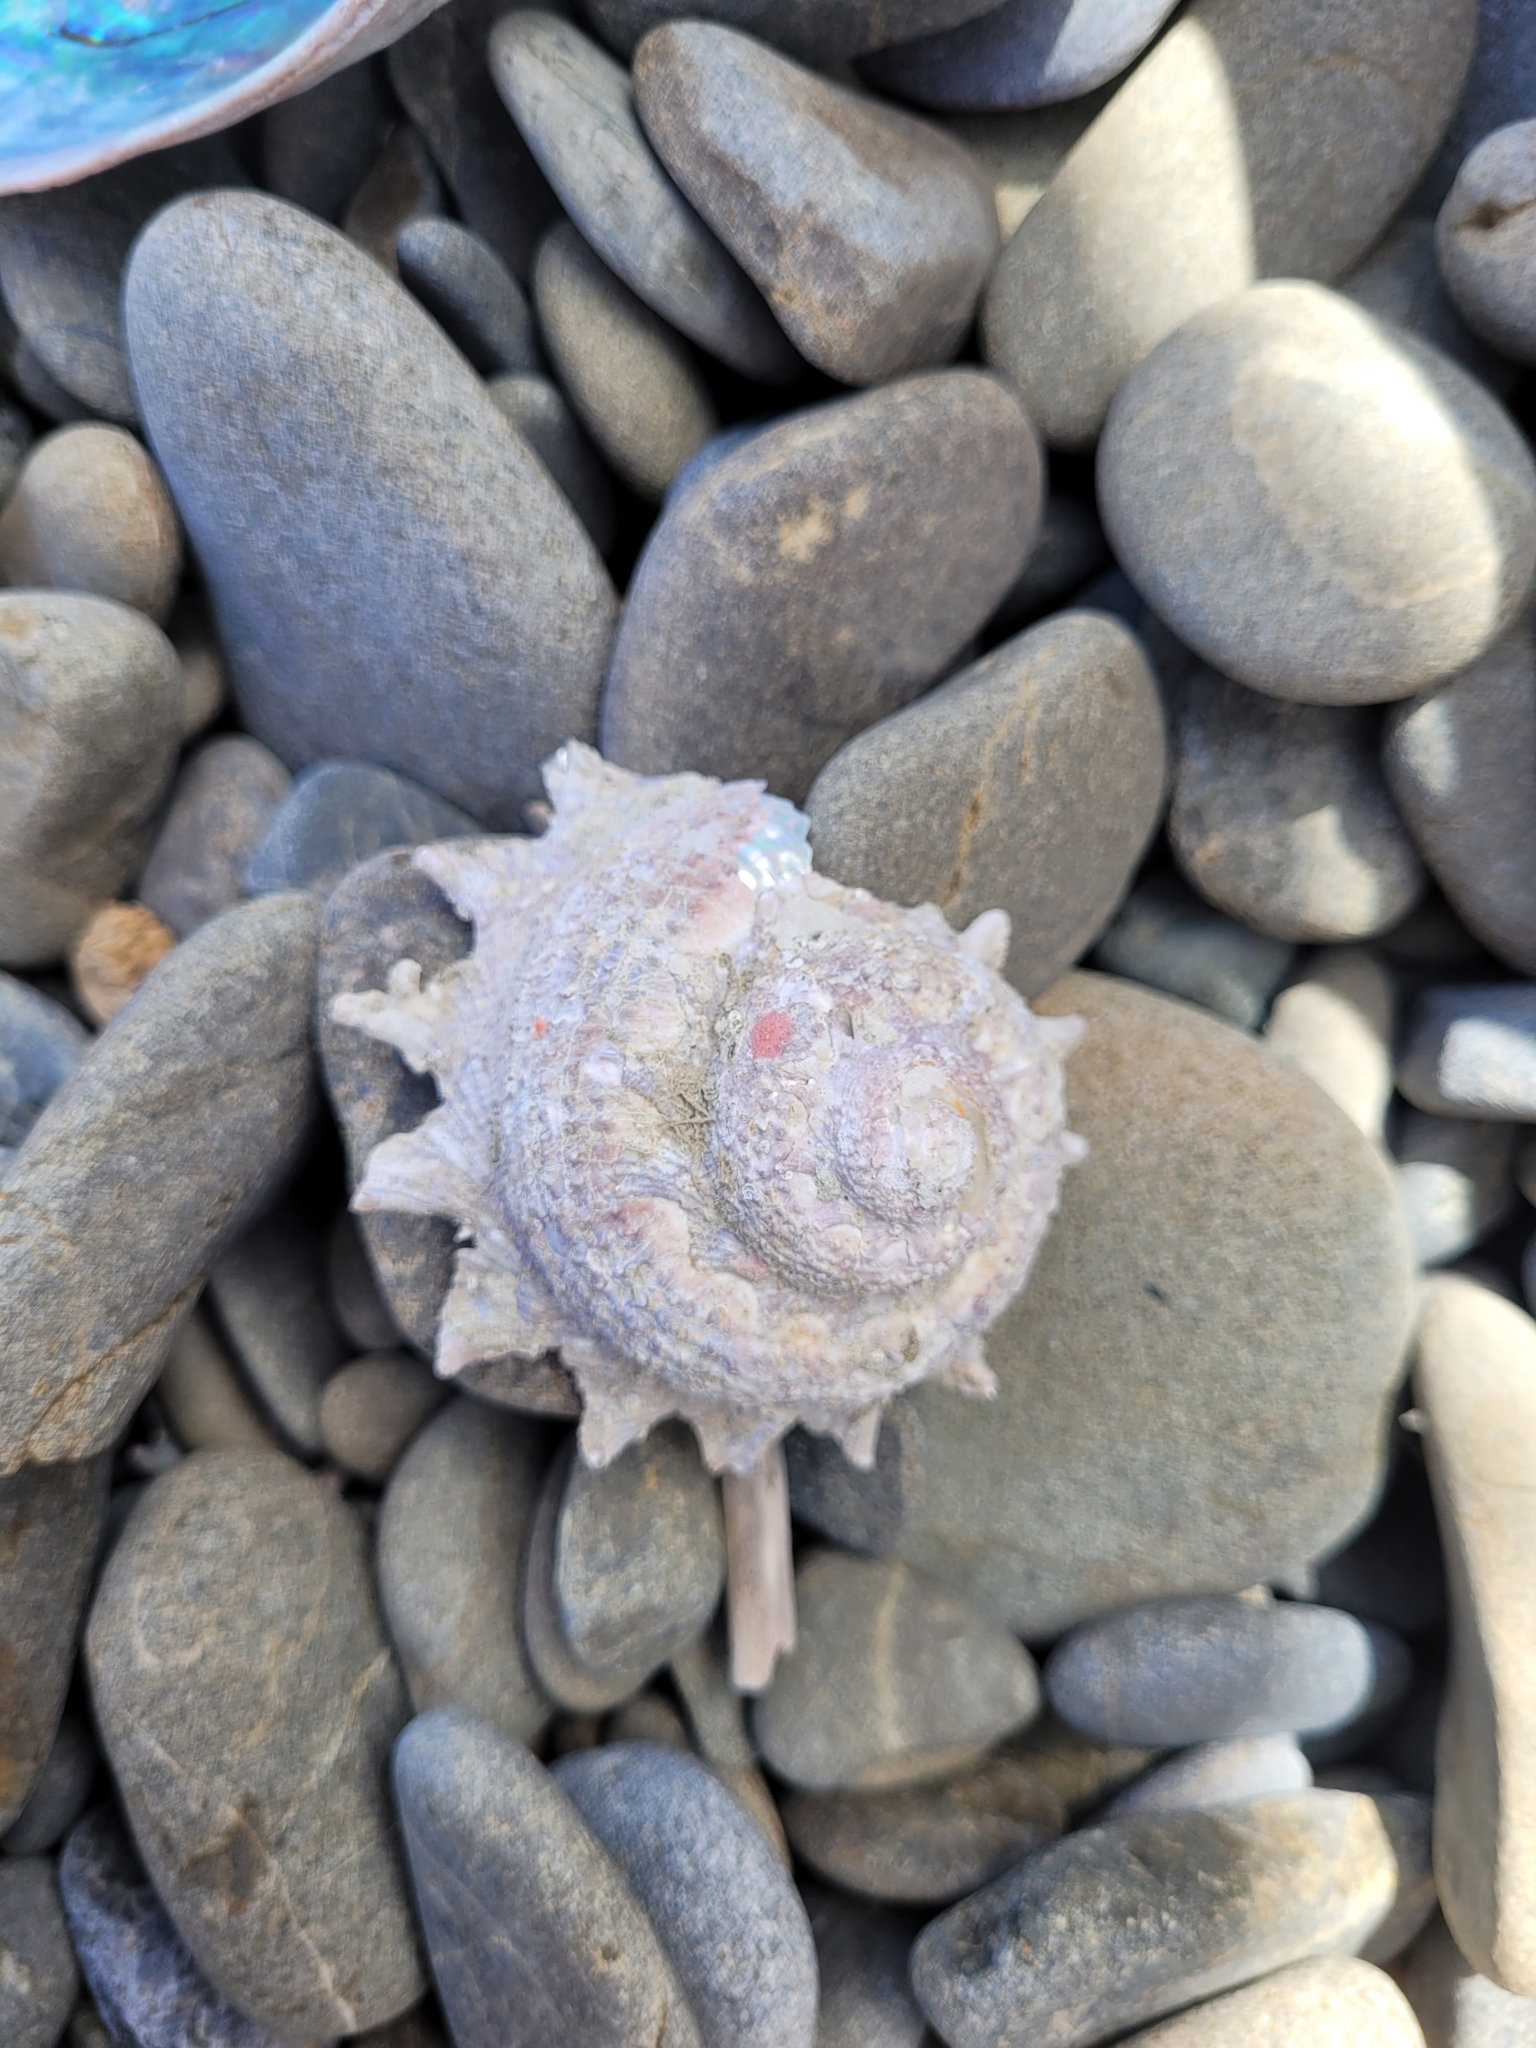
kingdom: Animalia
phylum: Mollusca
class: Gastropoda
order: Trochida
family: Turbinidae
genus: Astraea
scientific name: Astraea heliotropium
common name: Sun shell
